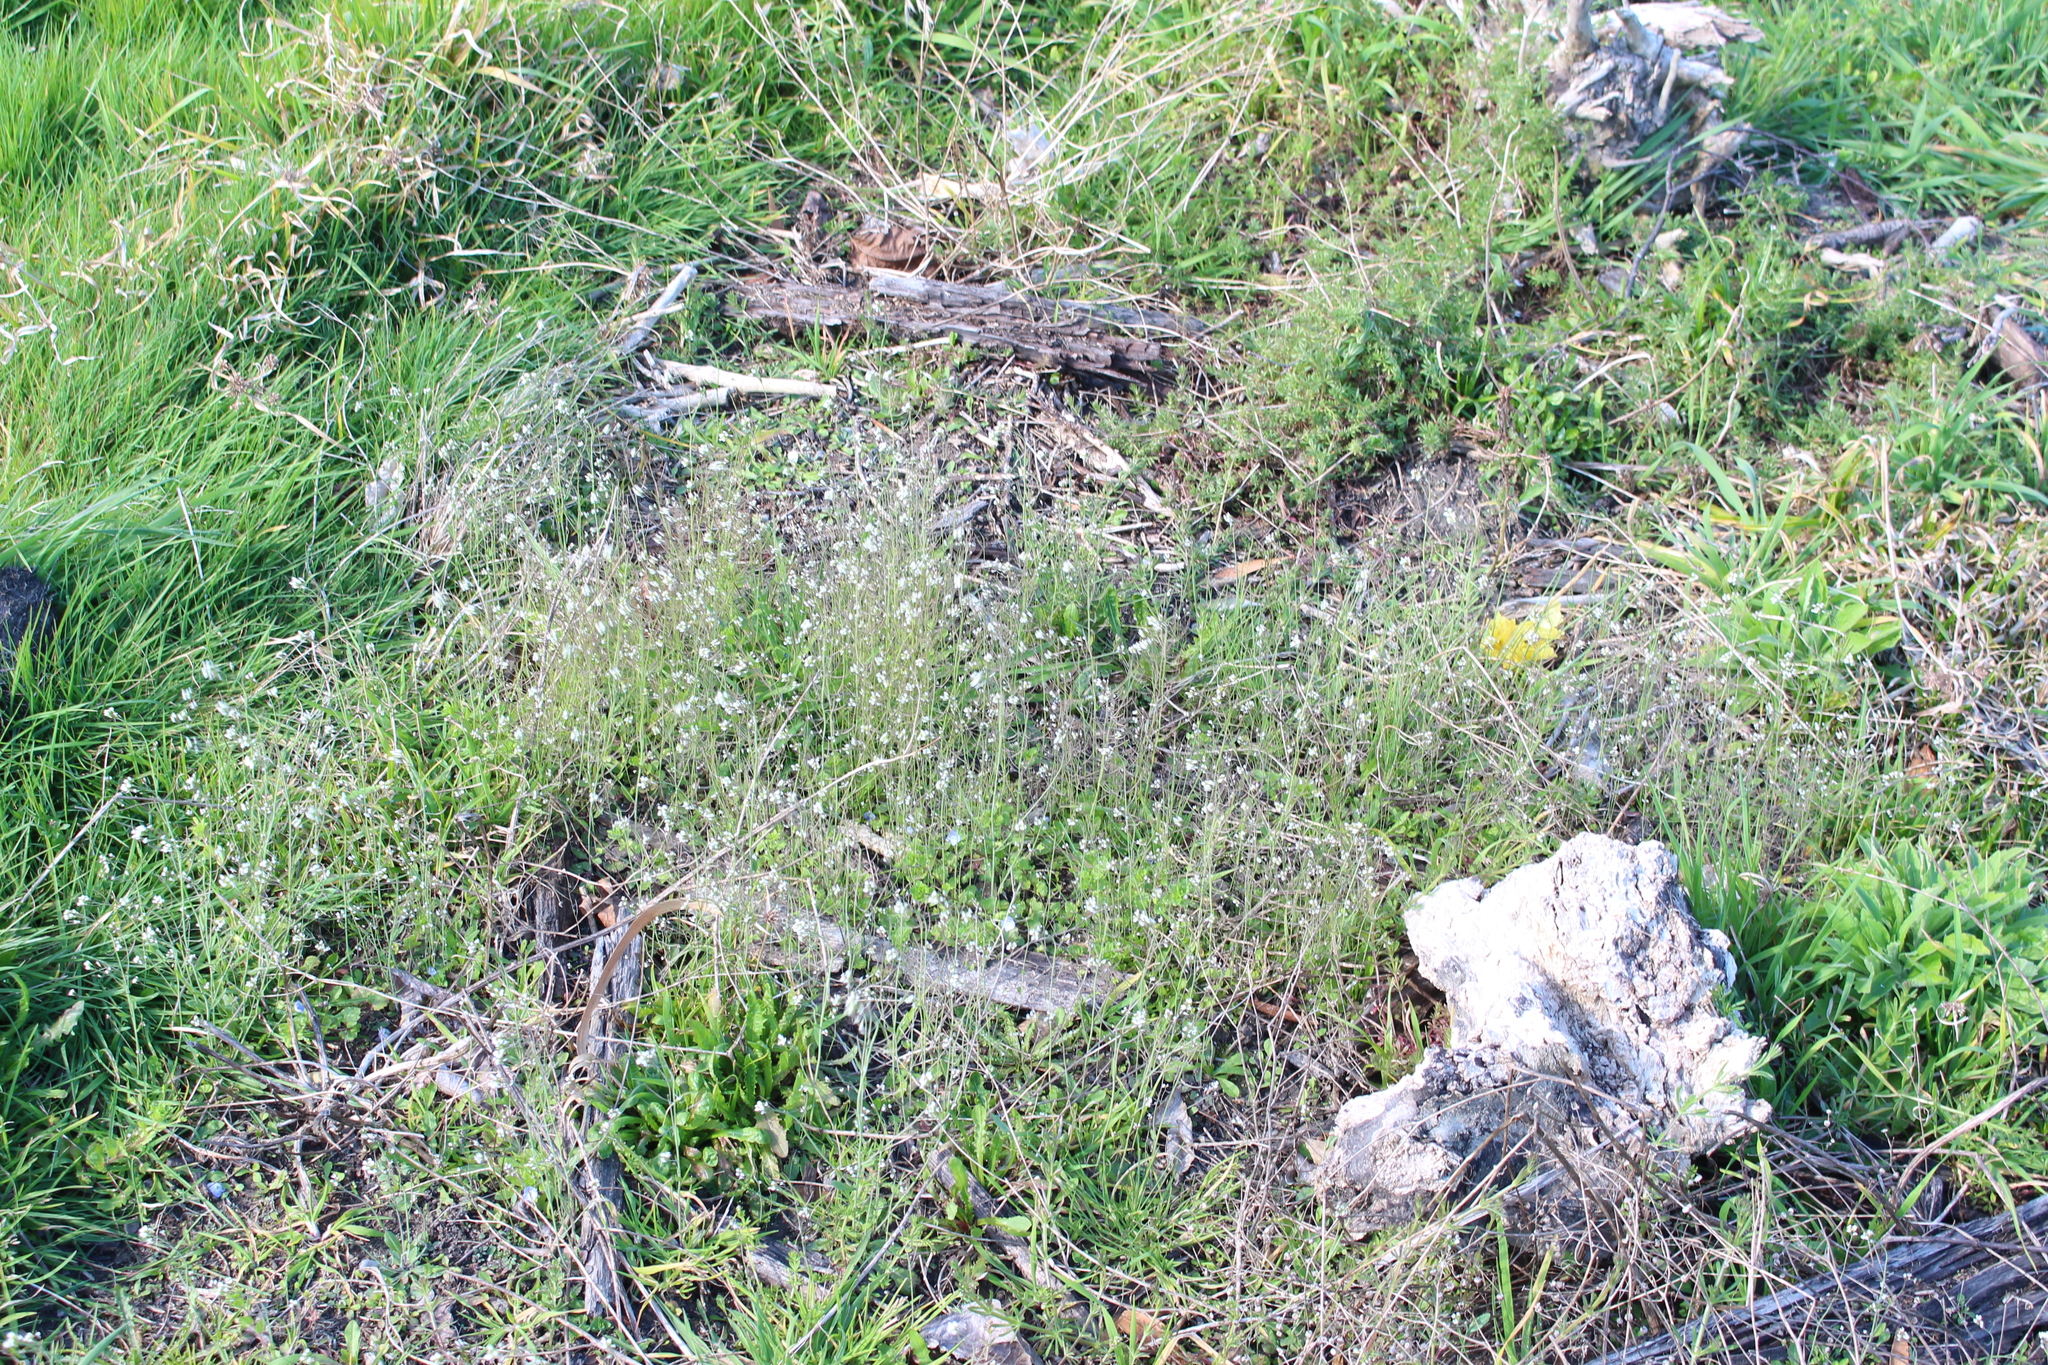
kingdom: Plantae
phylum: Tracheophyta
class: Magnoliopsida
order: Brassicales
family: Brassicaceae
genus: Arabidopsis
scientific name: Arabidopsis thaliana
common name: Thale cress
